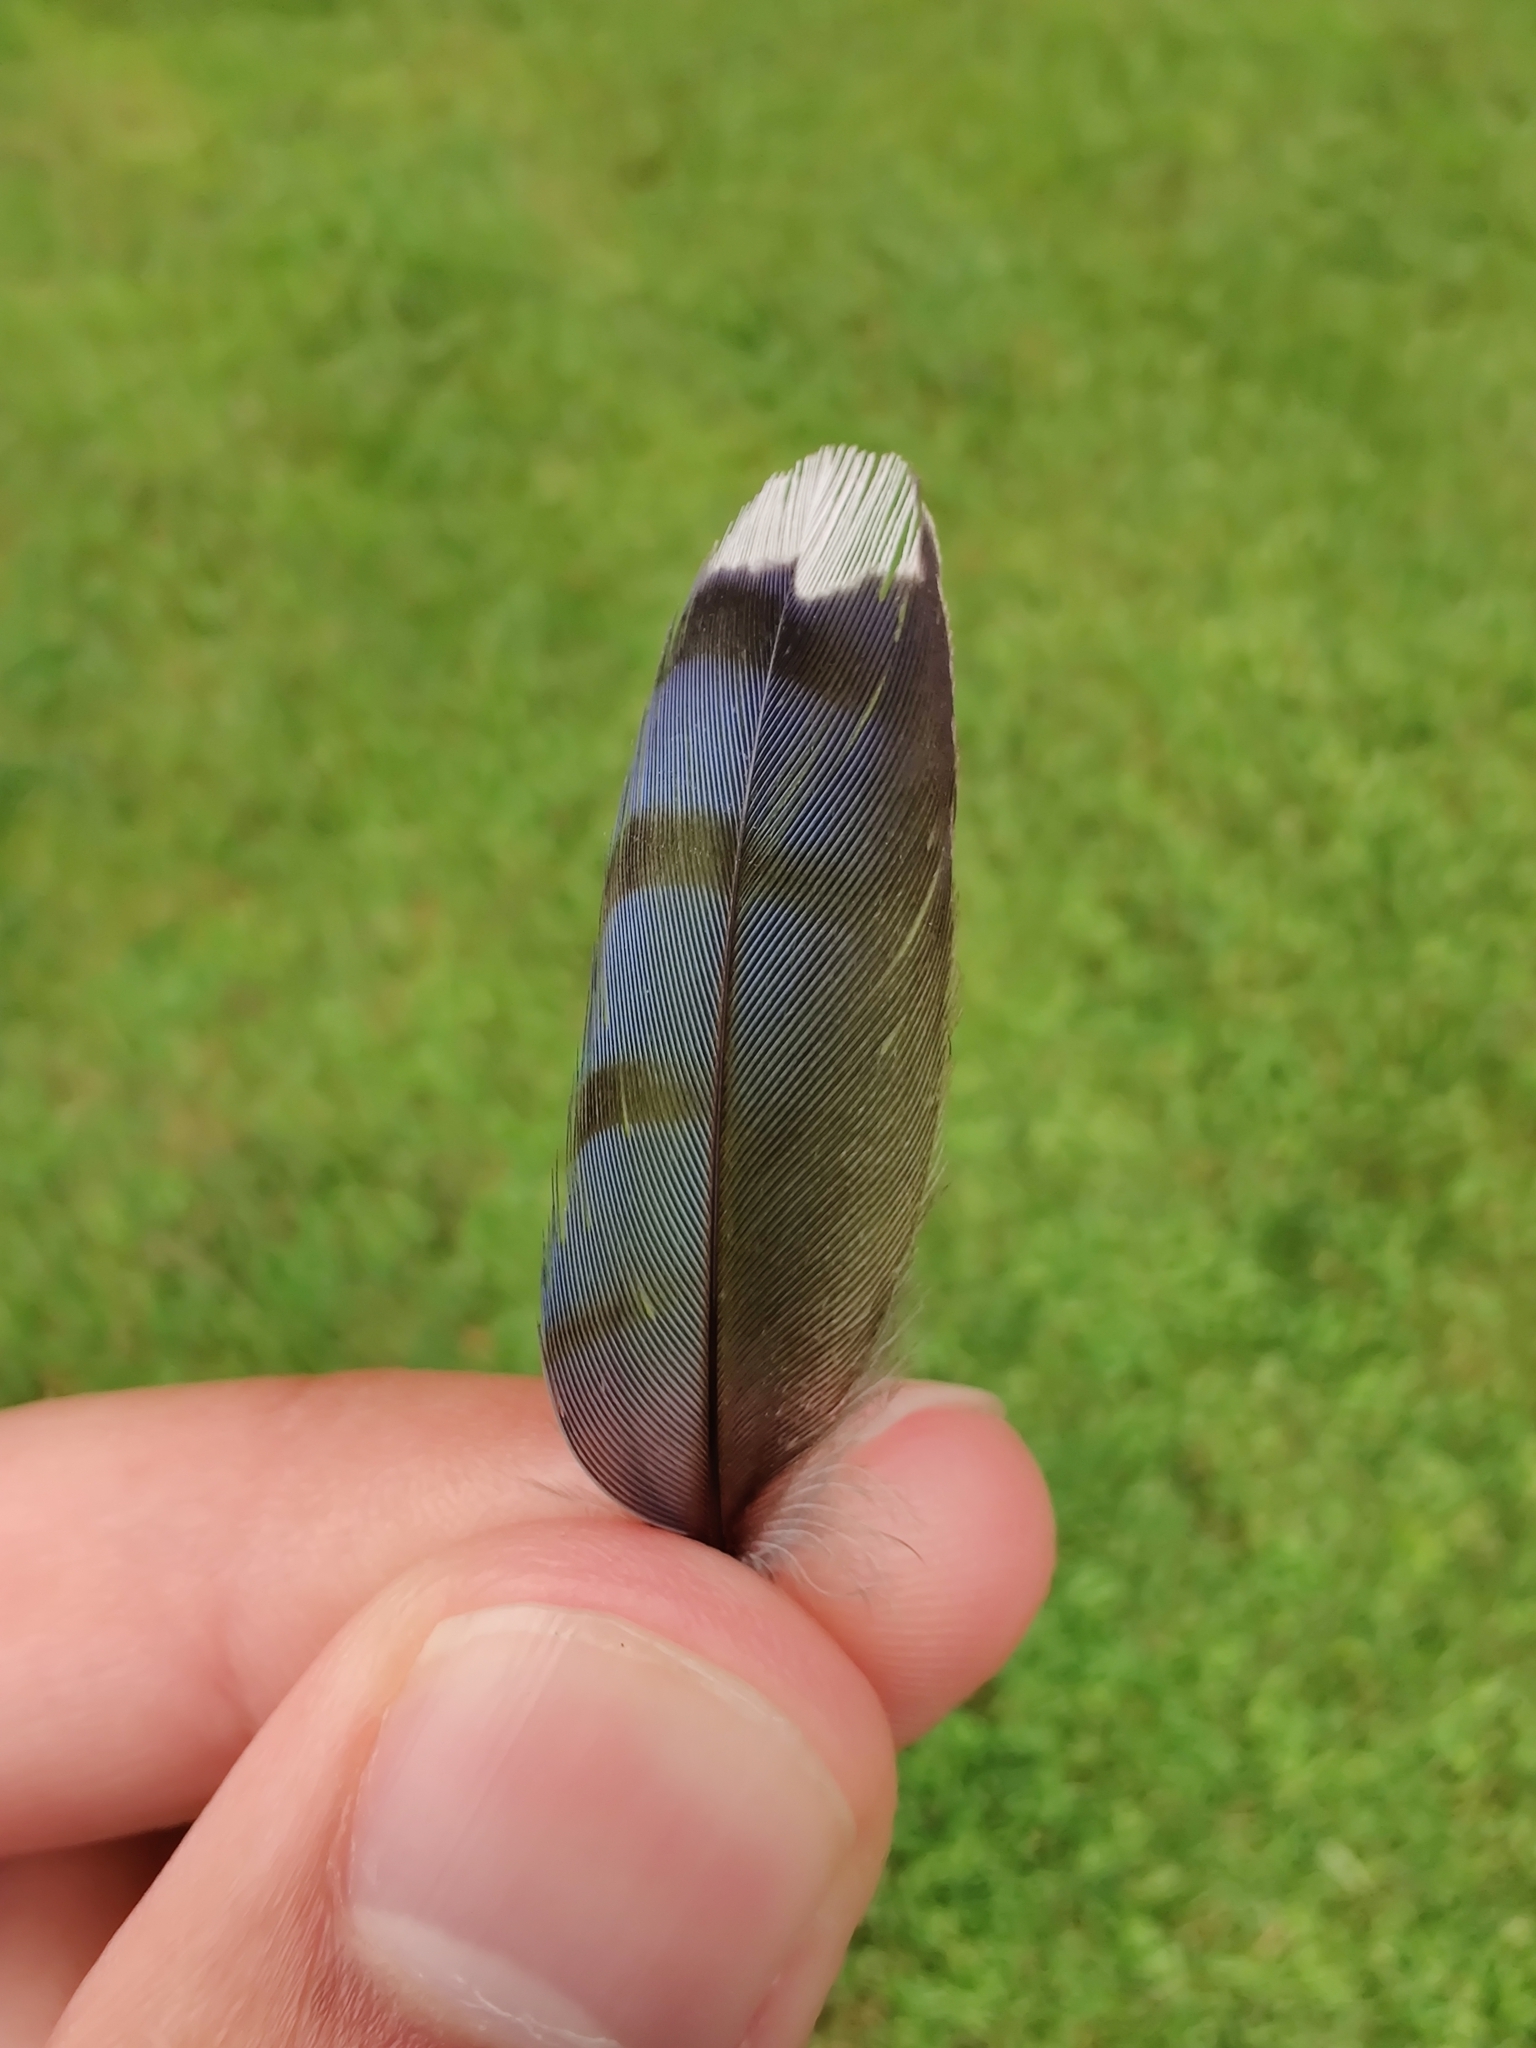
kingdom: Animalia
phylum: Chordata
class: Aves
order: Passeriformes
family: Corvidae
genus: Cyanocitta
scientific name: Cyanocitta cristata
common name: Blue jay
